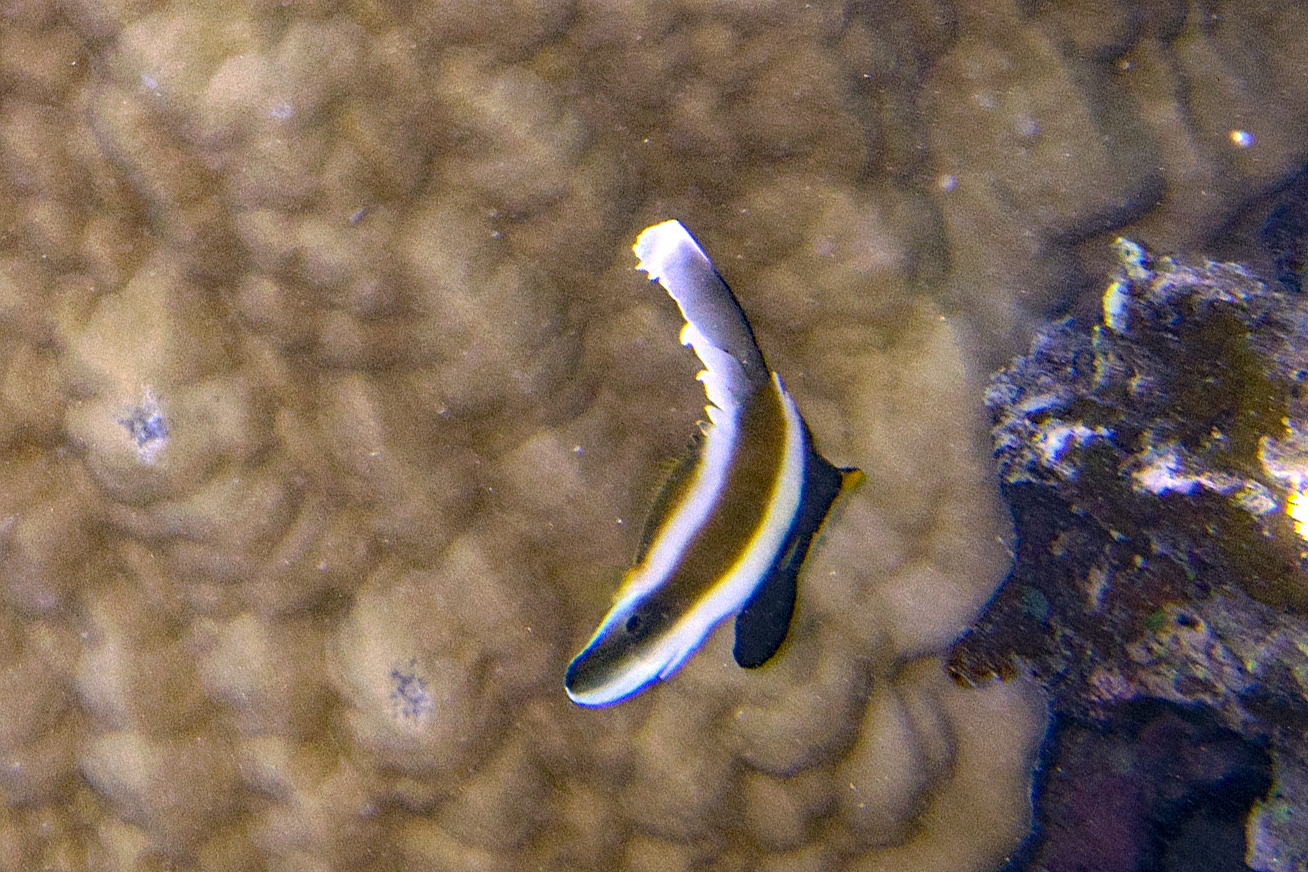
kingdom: Animalia
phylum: Chordata
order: Perciformes
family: Chaetodontidae
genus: Heniochus
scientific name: Heniochus chrysostomus
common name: Horned bannerfish
